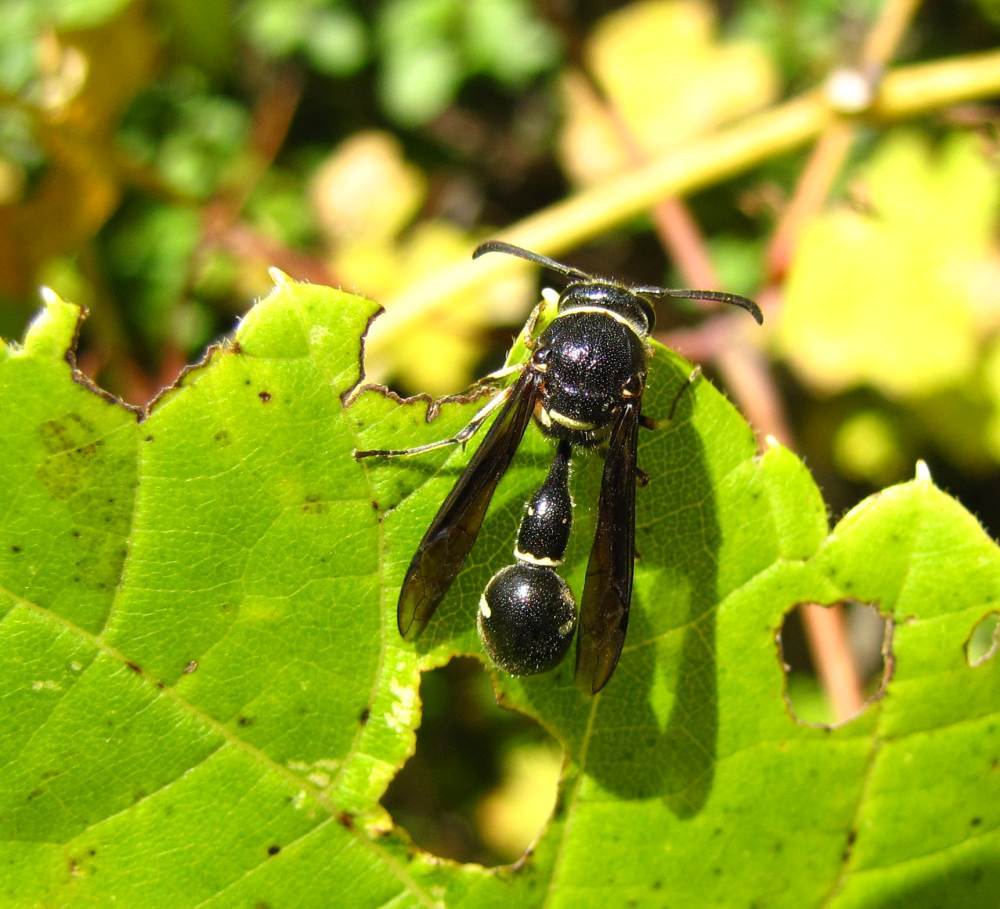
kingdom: Animalia
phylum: Arthropoda
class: Insecta
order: Hymenoptera
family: Vespidae
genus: Eumenes
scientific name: Eumenes fraternus
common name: Fraternal potter wasp
